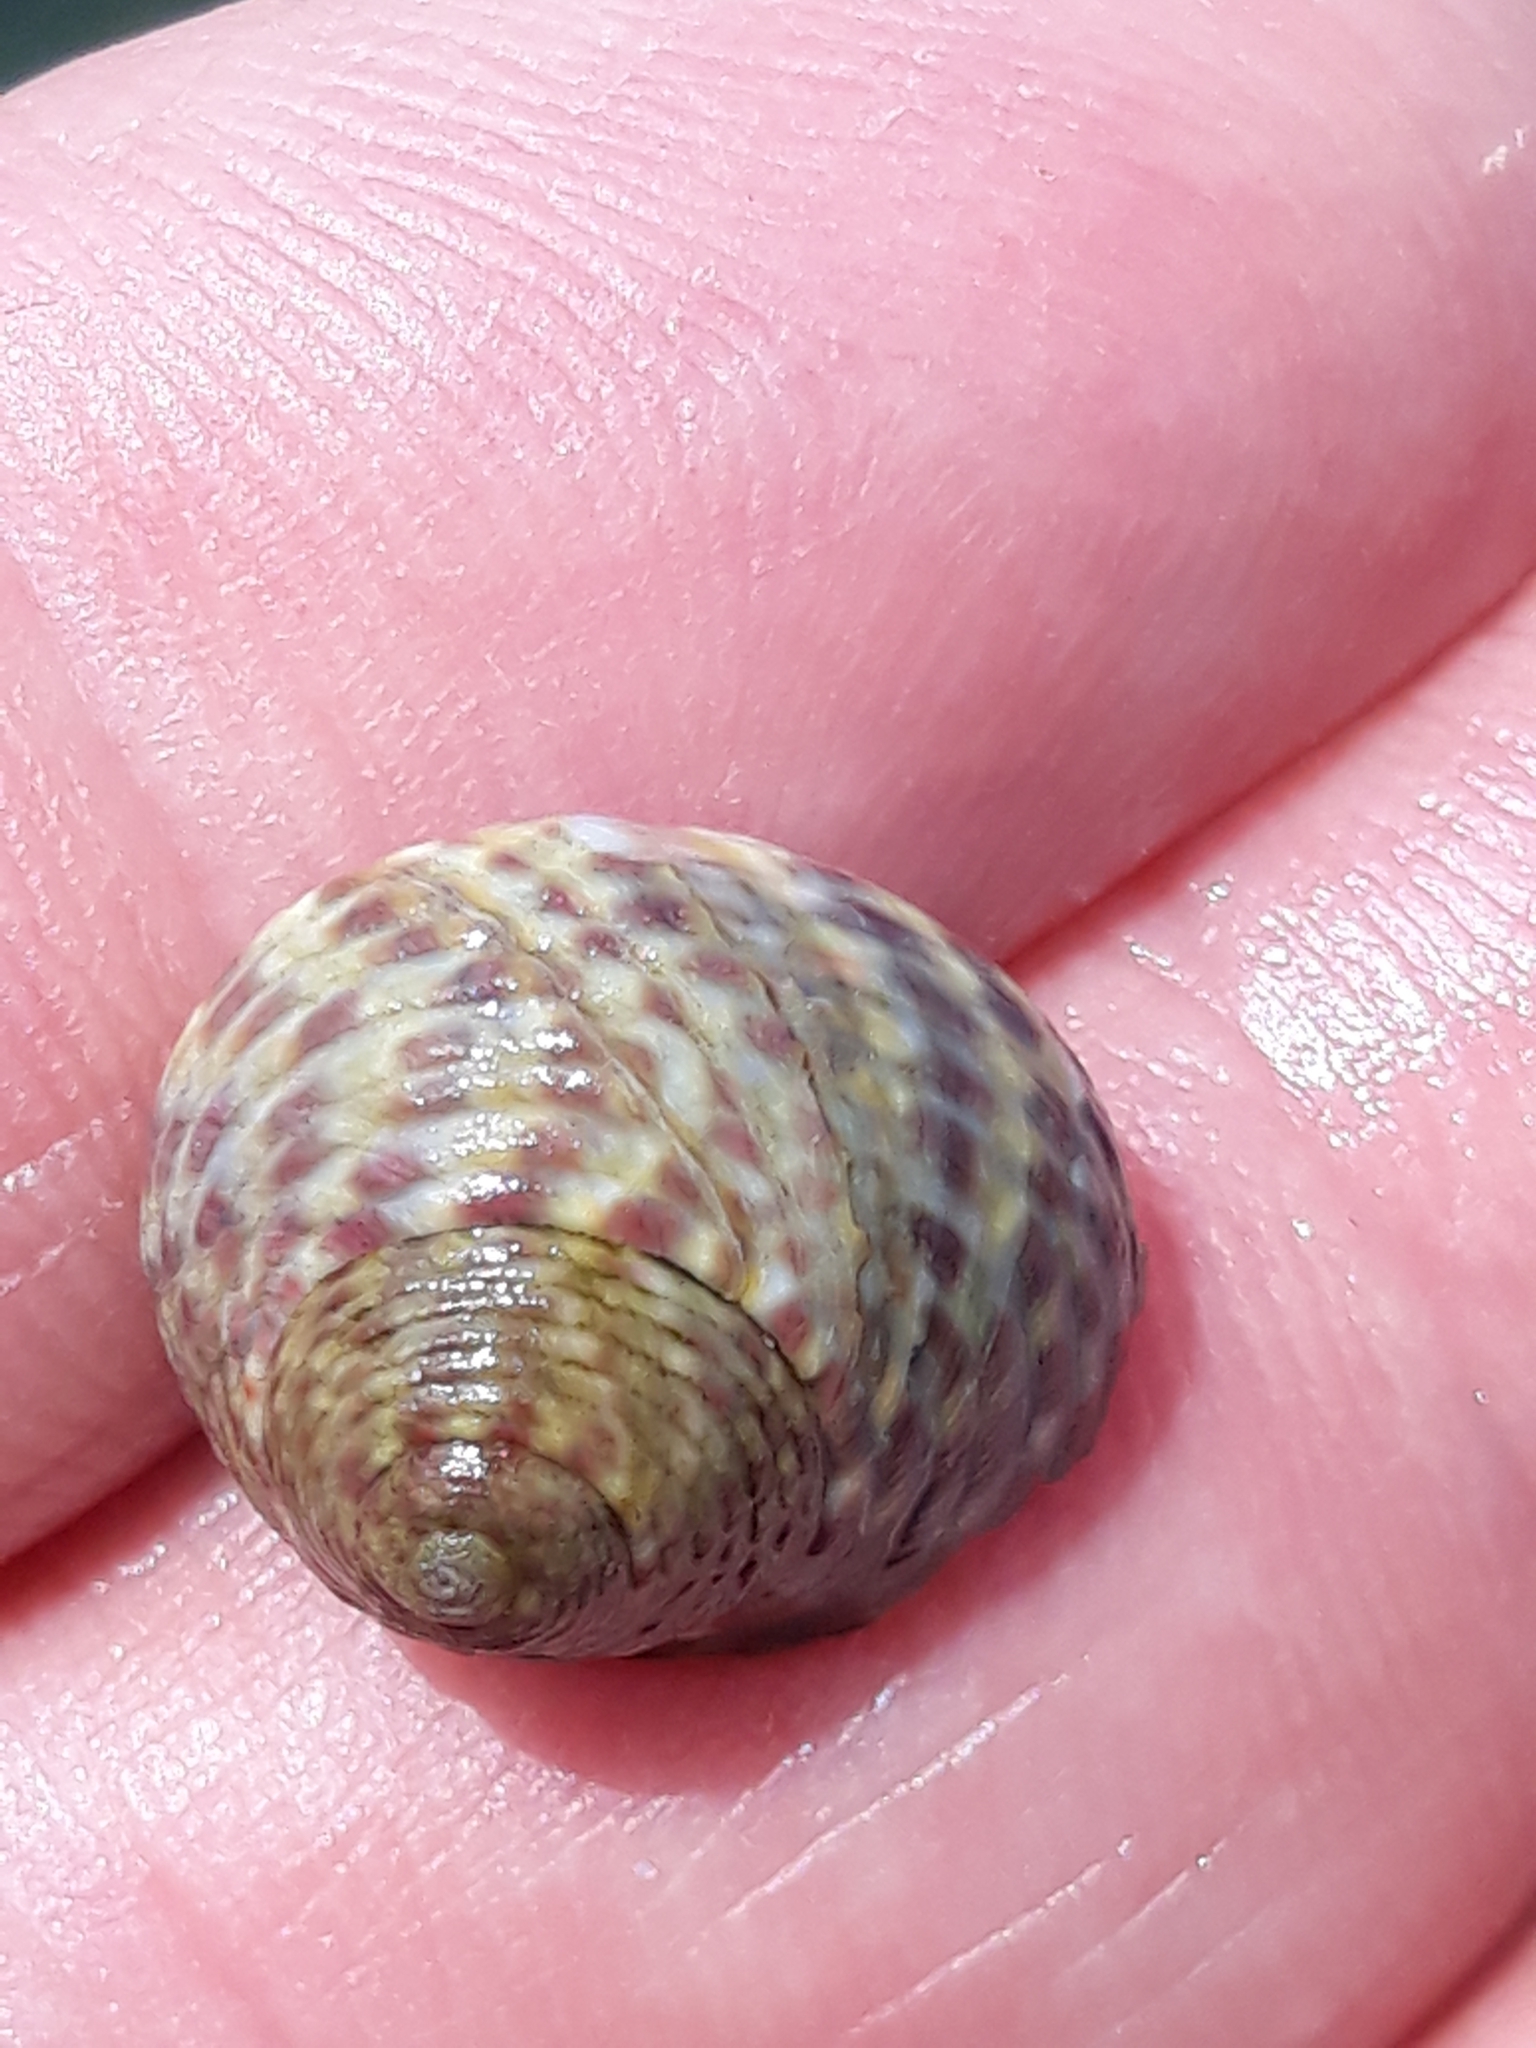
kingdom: Animalia
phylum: Mollusca
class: Gastropoda
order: Trochida
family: Trochidae
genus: Phorcus
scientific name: Phorcus turbinatus
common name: Turbinate monodont
